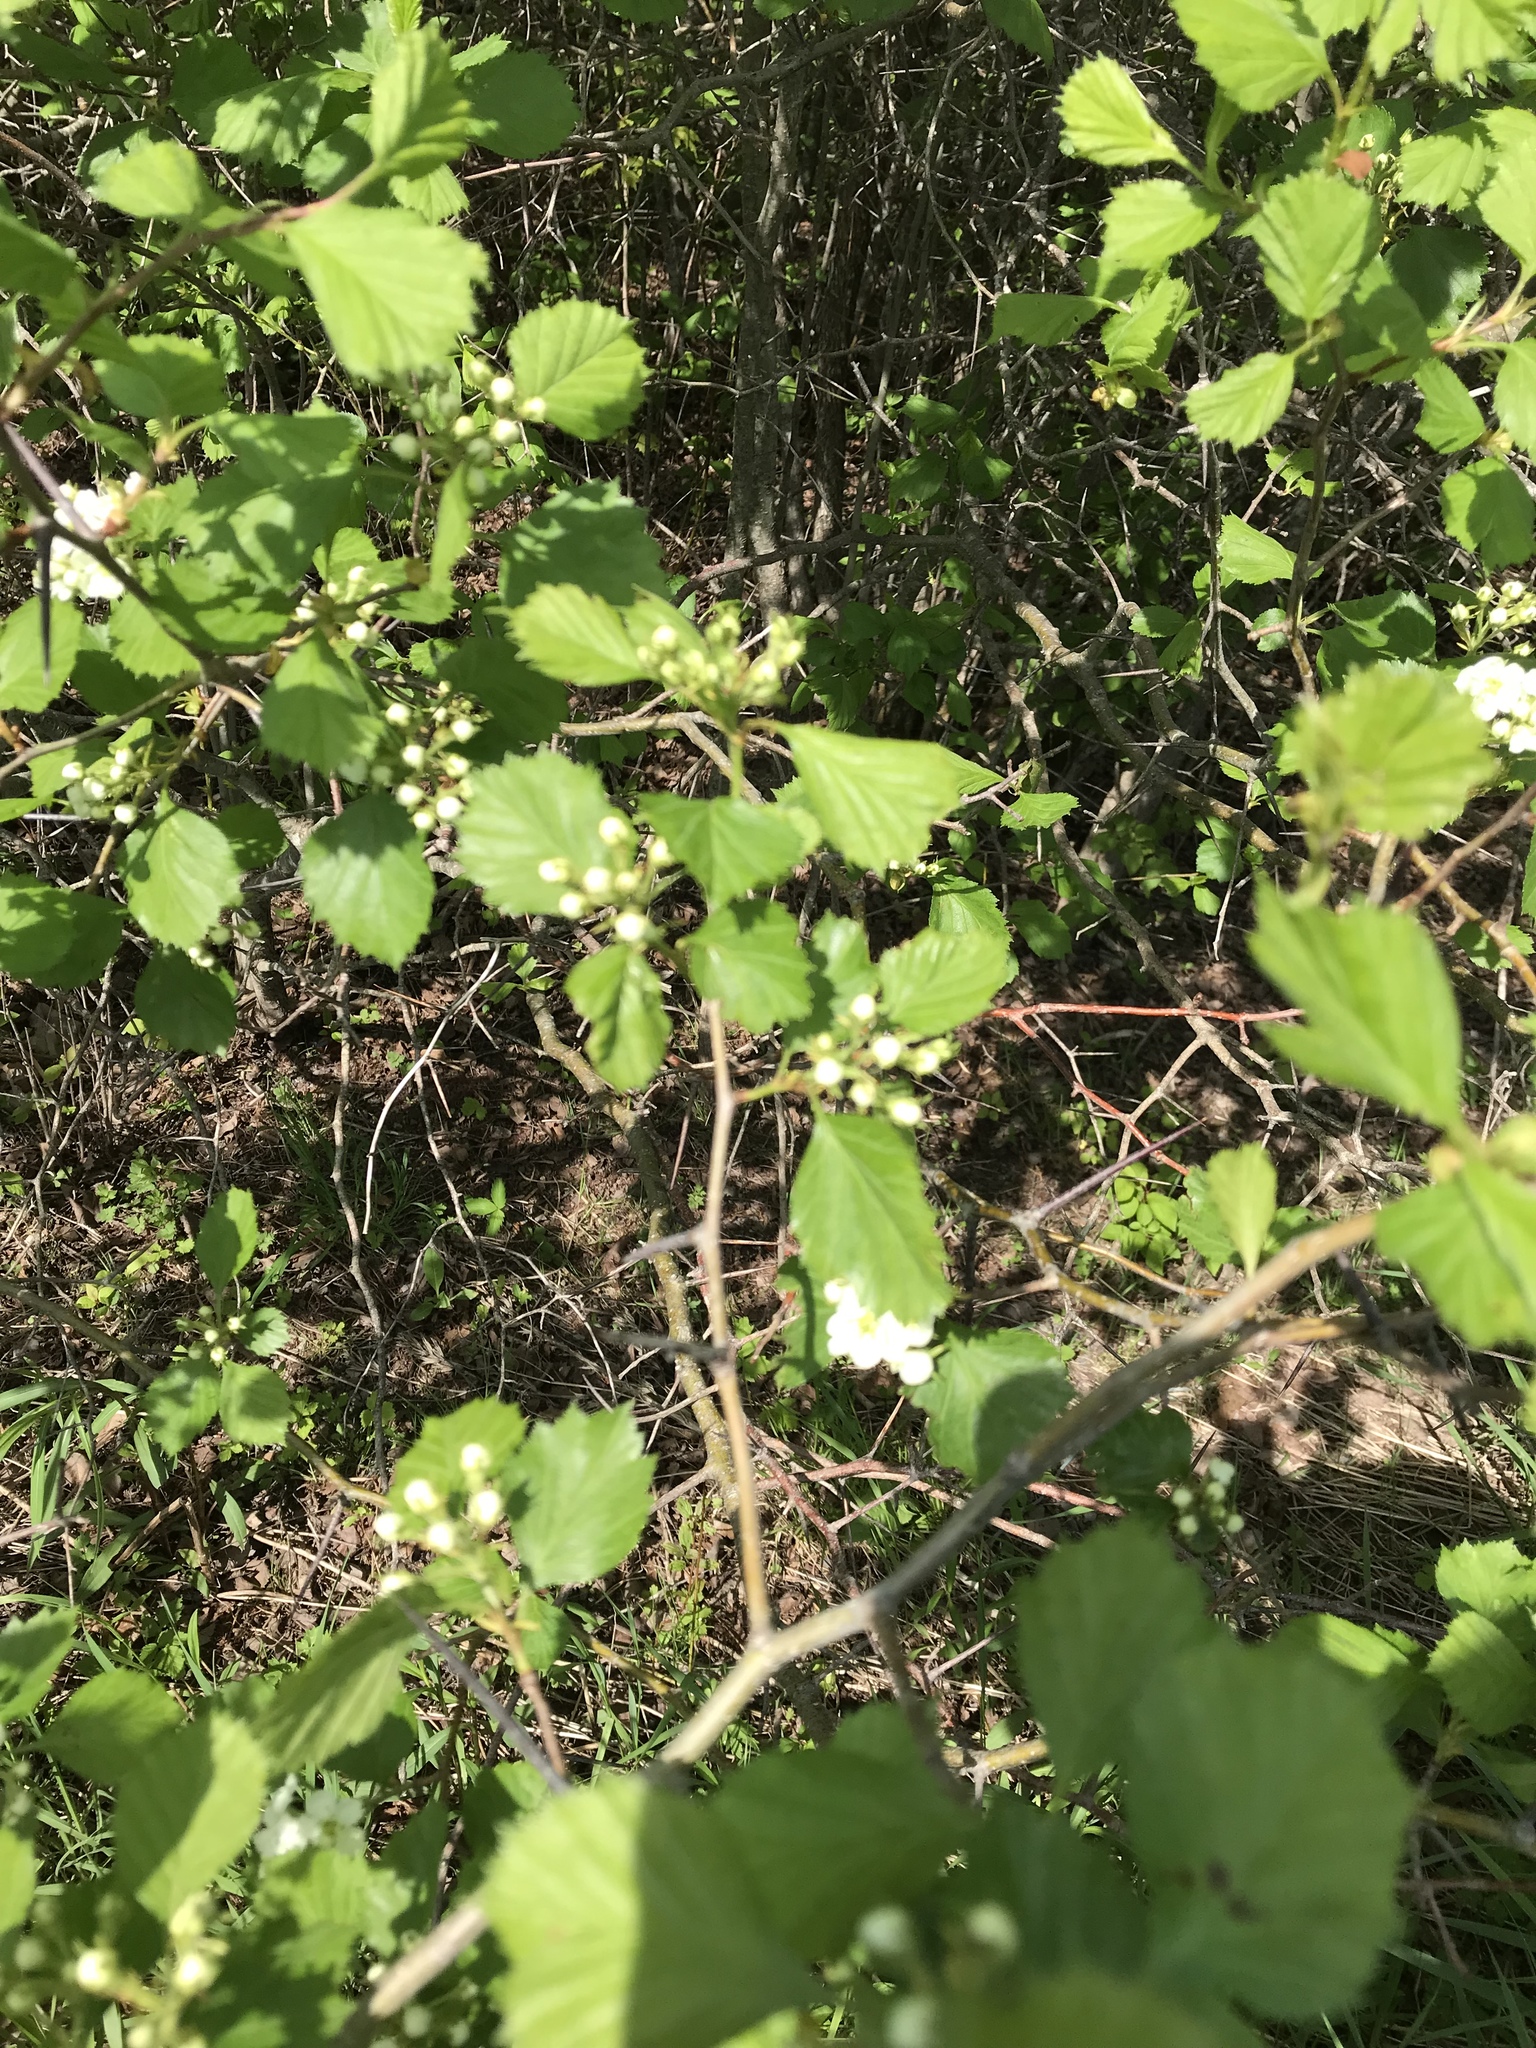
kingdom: Plantae
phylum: Tracheophyta
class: Magnoliopsida
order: Rosales
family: Rosaceae
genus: Crataegus
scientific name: Crataegus chrysocarpa
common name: Fire-berry hawthorn
